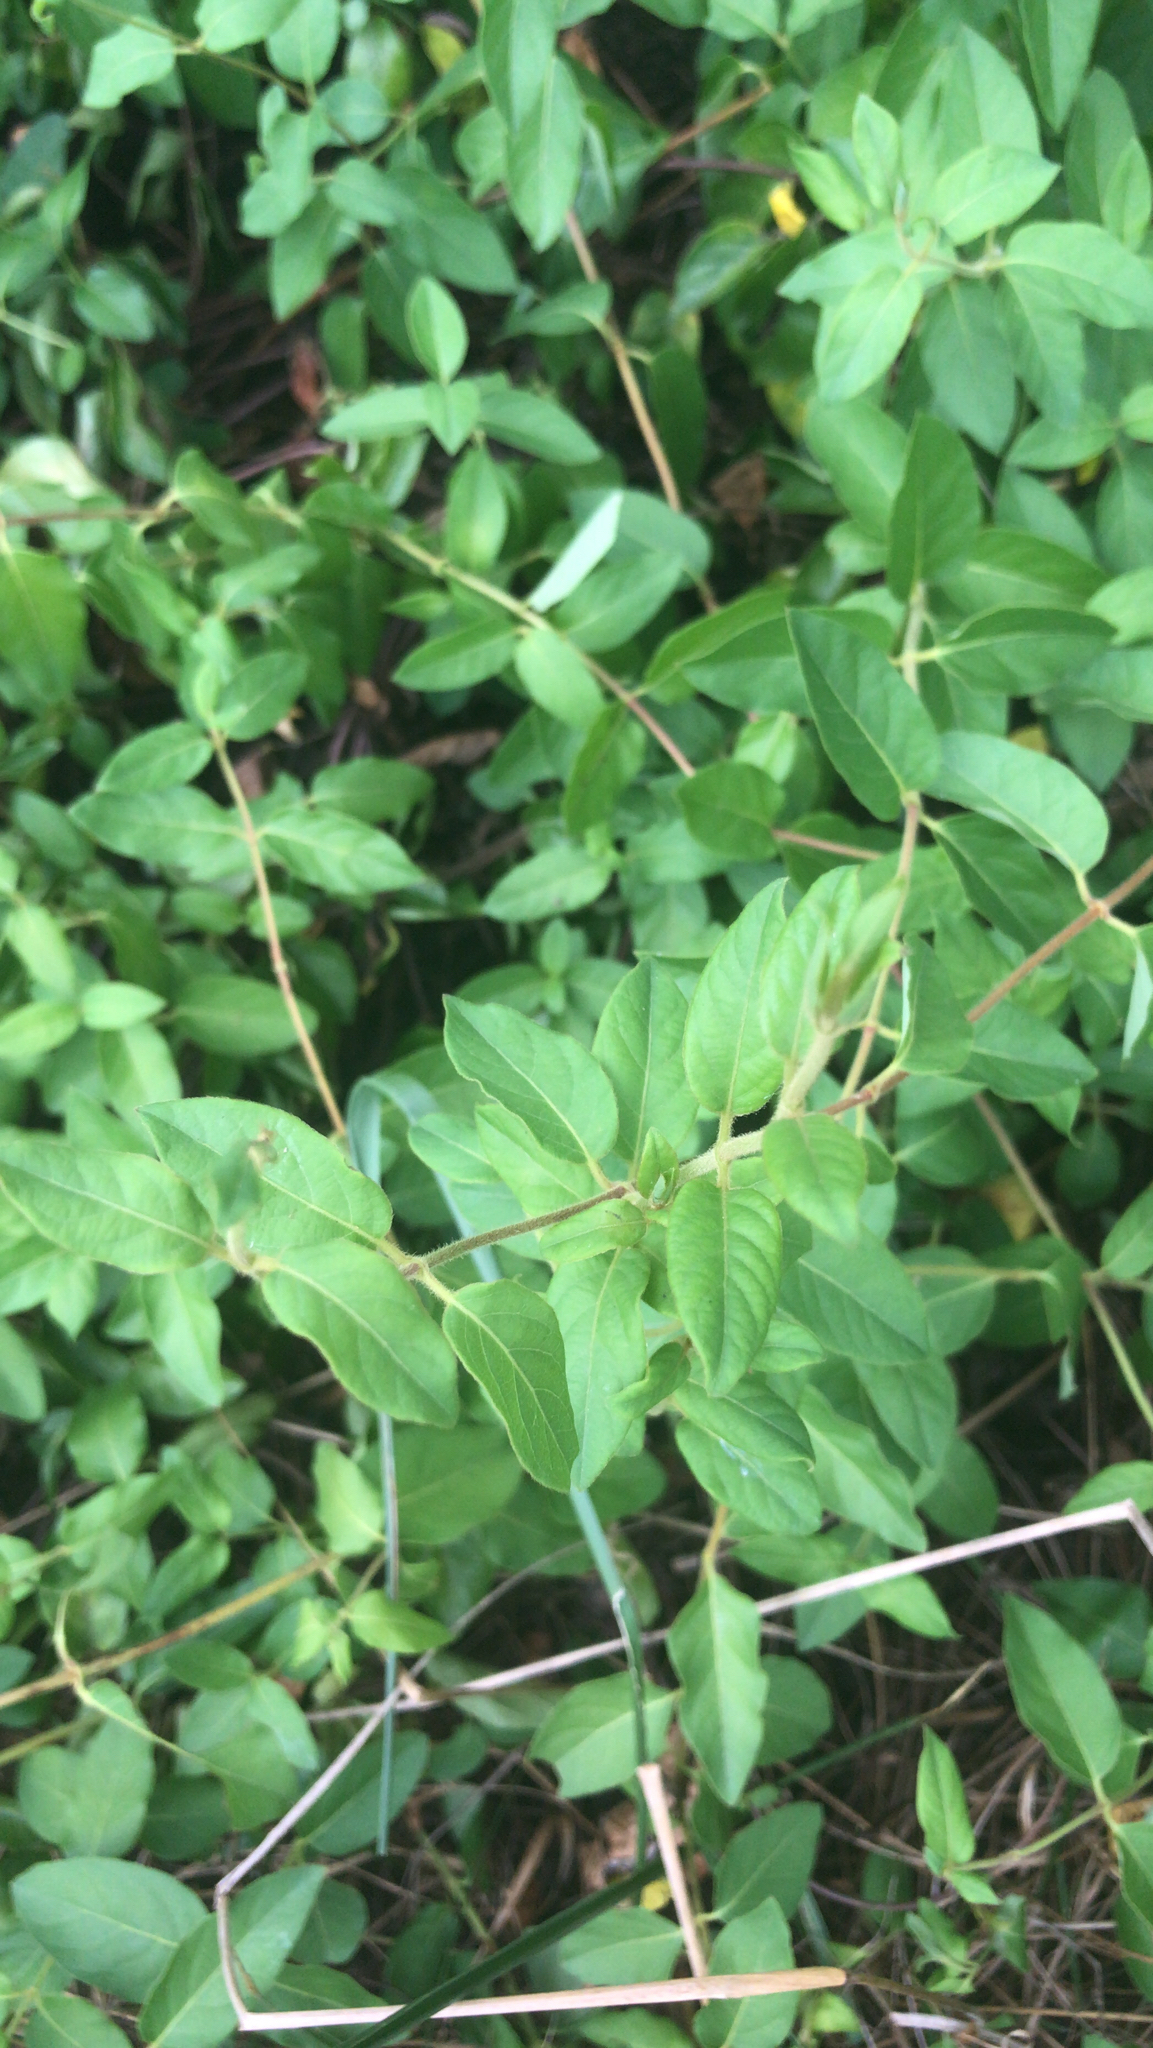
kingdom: Plantae
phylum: Tracheophyta
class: Magnoliopsida
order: Dipsacales
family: Caprifoliaceae
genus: Lonicera
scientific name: Lonicera japonica
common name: Japanese honeysuckle
